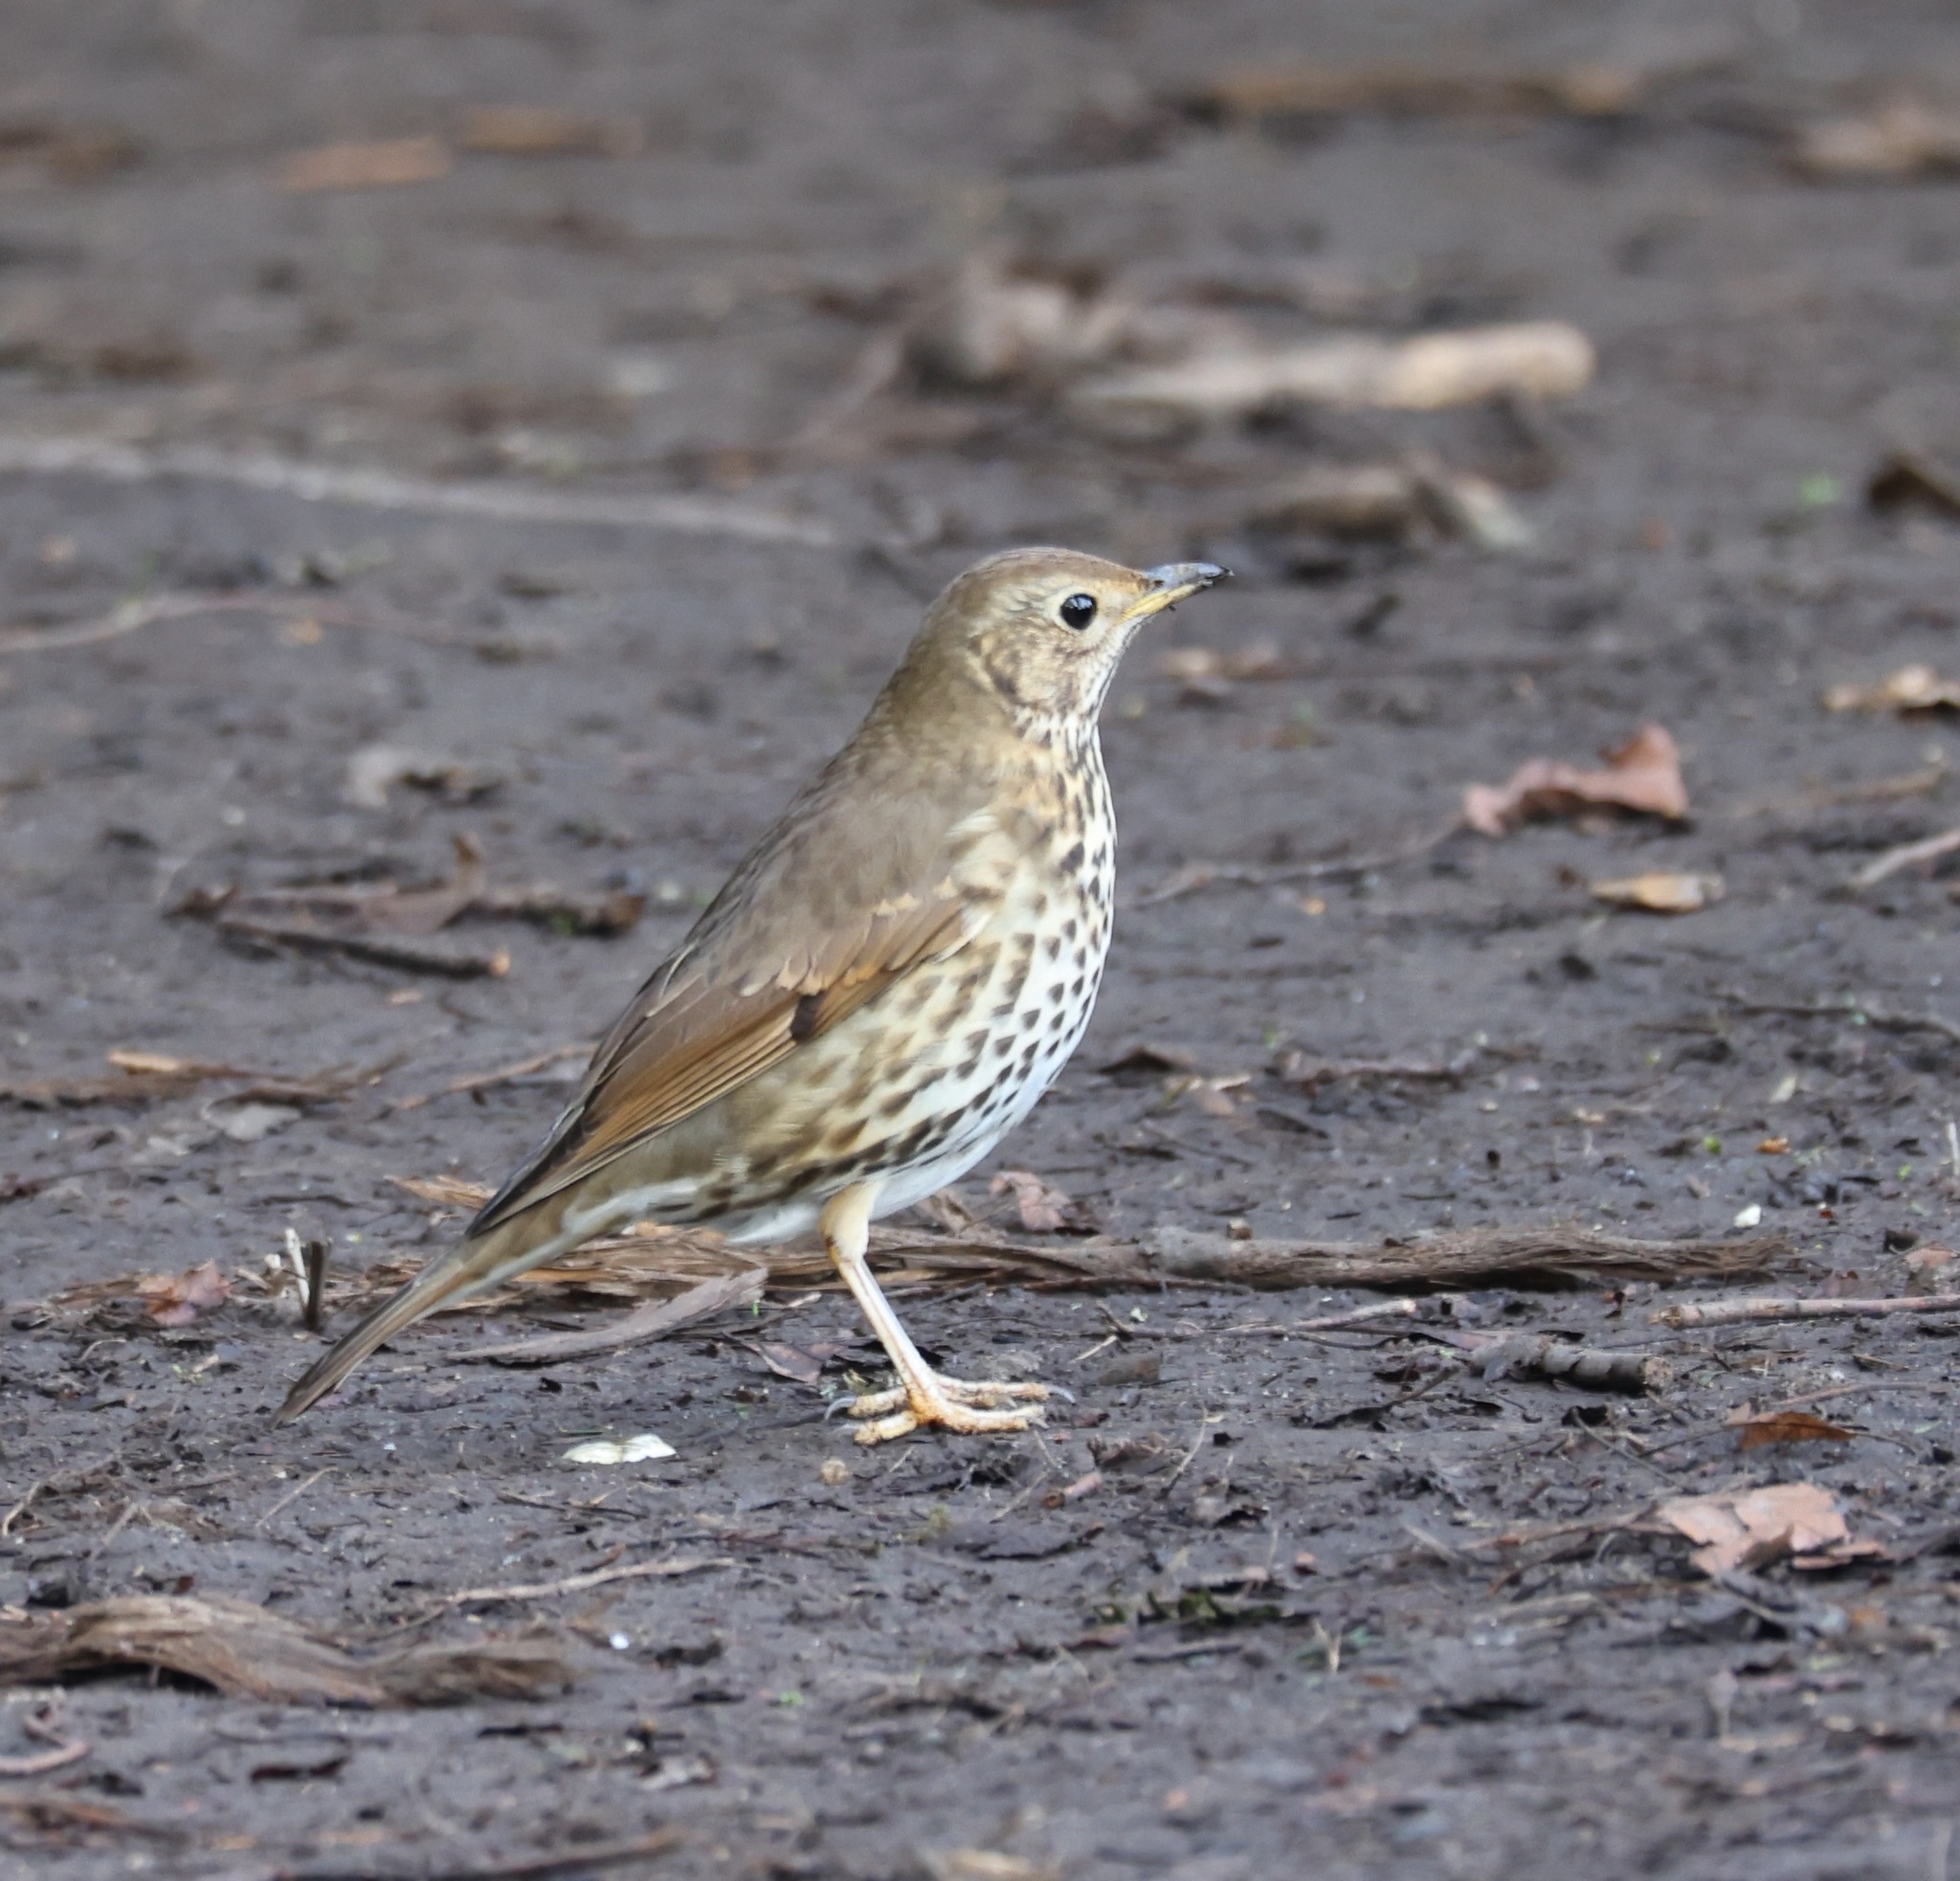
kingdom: Animalia
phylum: Chordata
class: Aves
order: Passeriformes
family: Turdidae
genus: Turdus
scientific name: Turdus philomelos
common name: Song thrush
